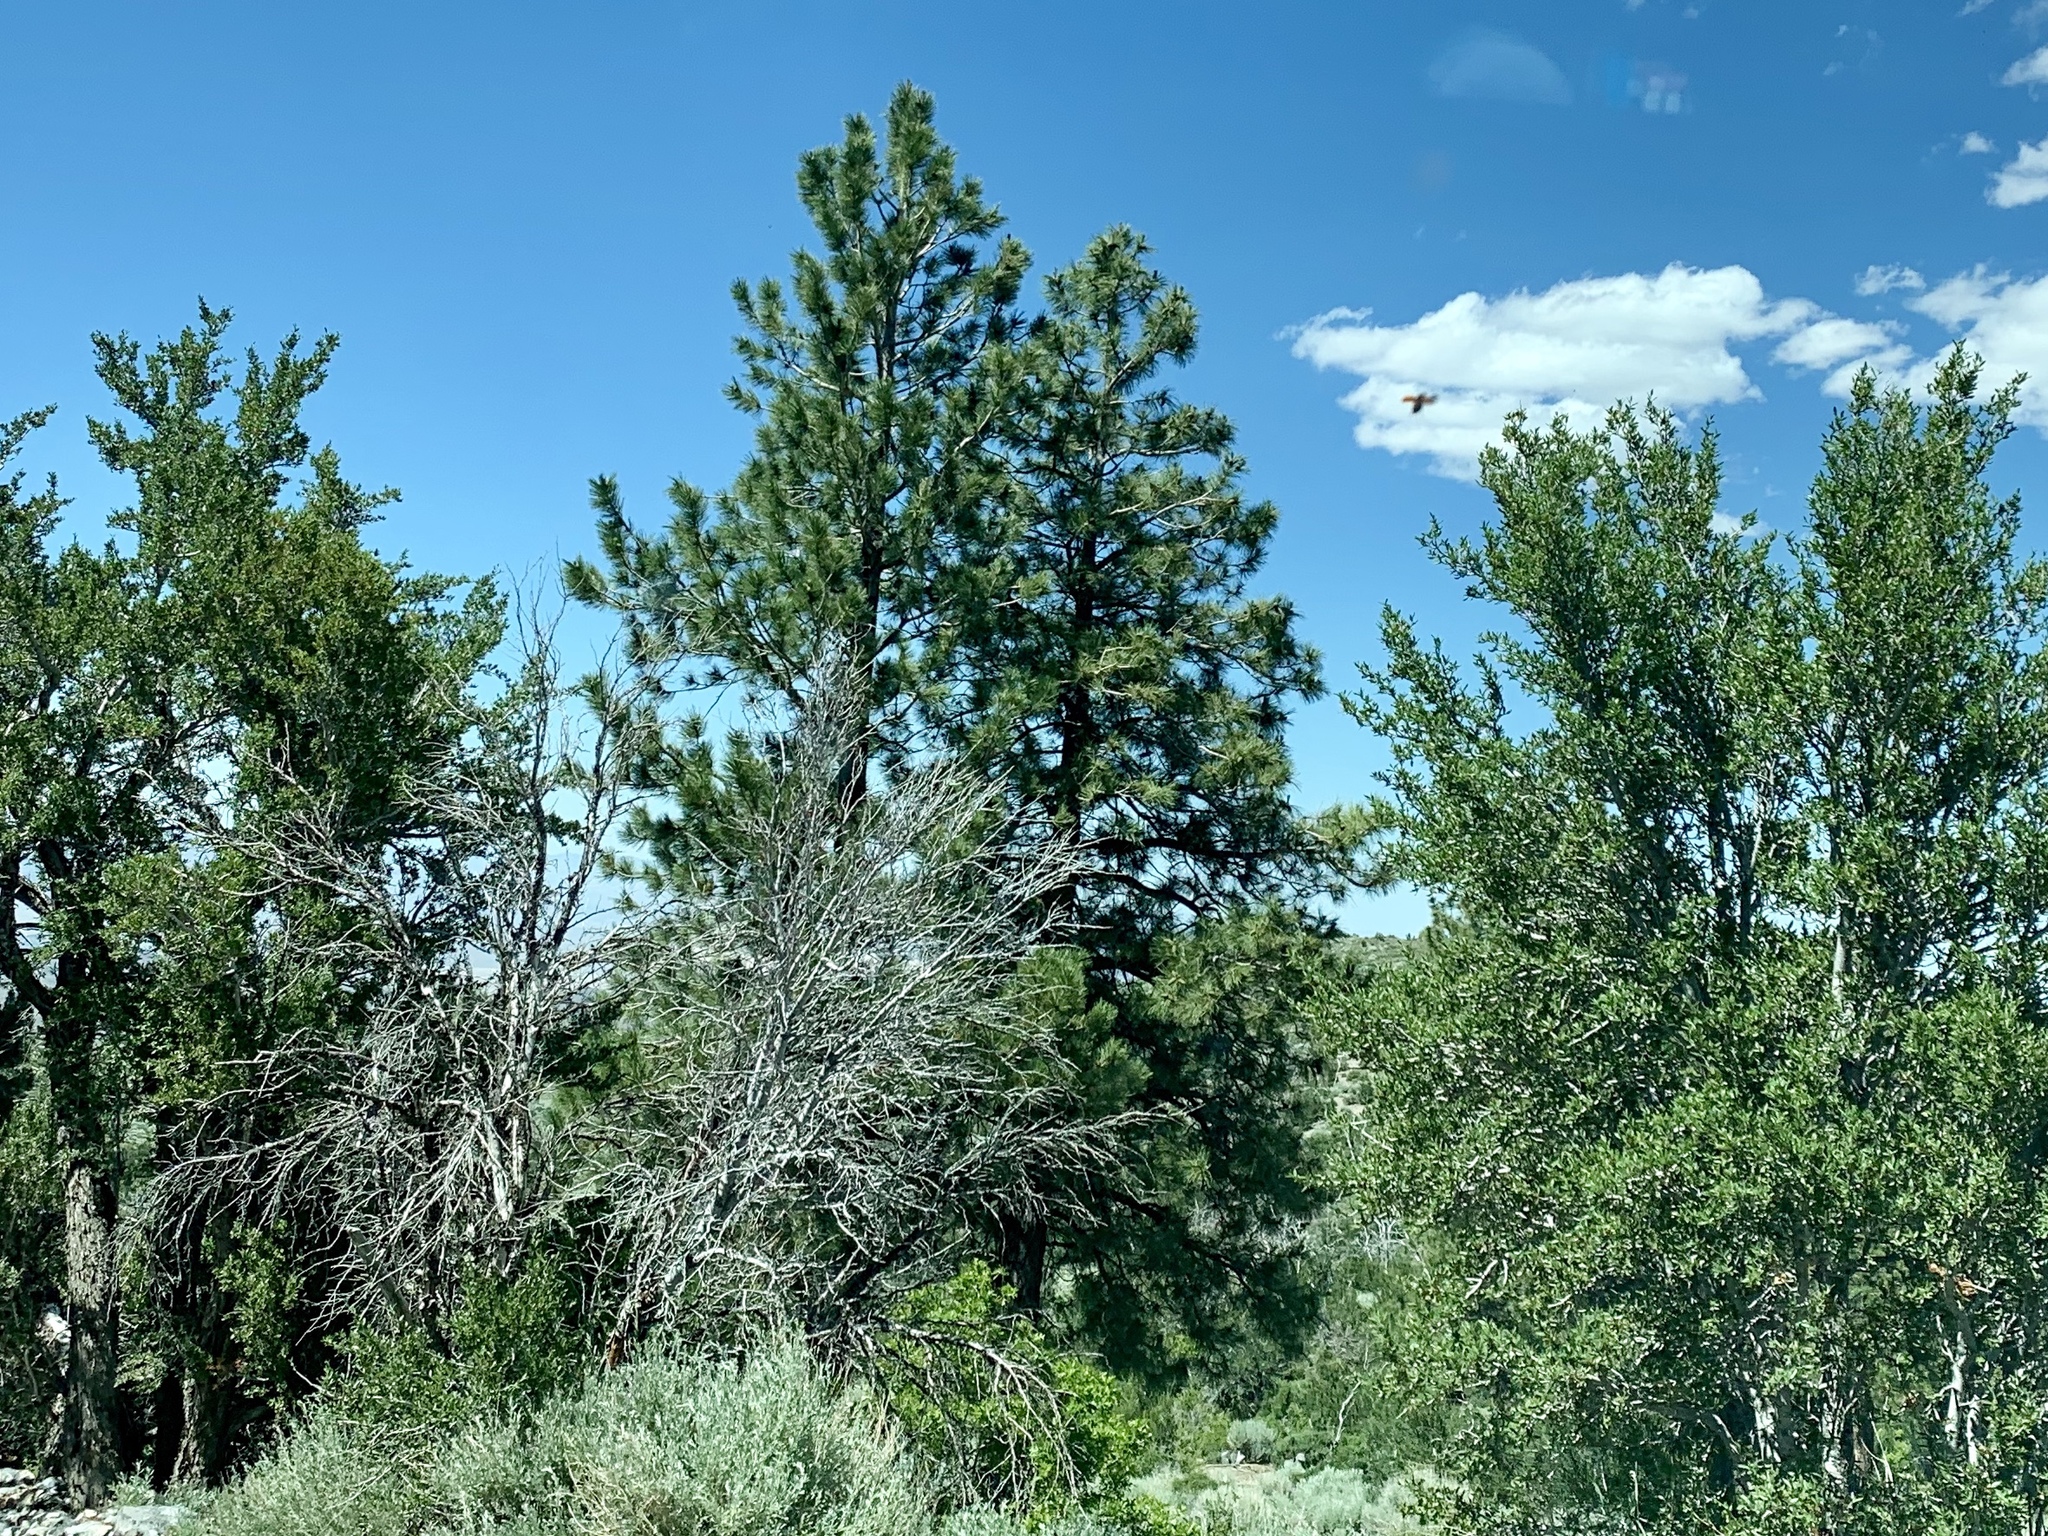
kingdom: Plantae
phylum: Tracheophyta
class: Pinopsida
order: Pinales
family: Pinaceae
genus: Pinus
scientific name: Pinus ponderosa
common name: Western yellow-pine
